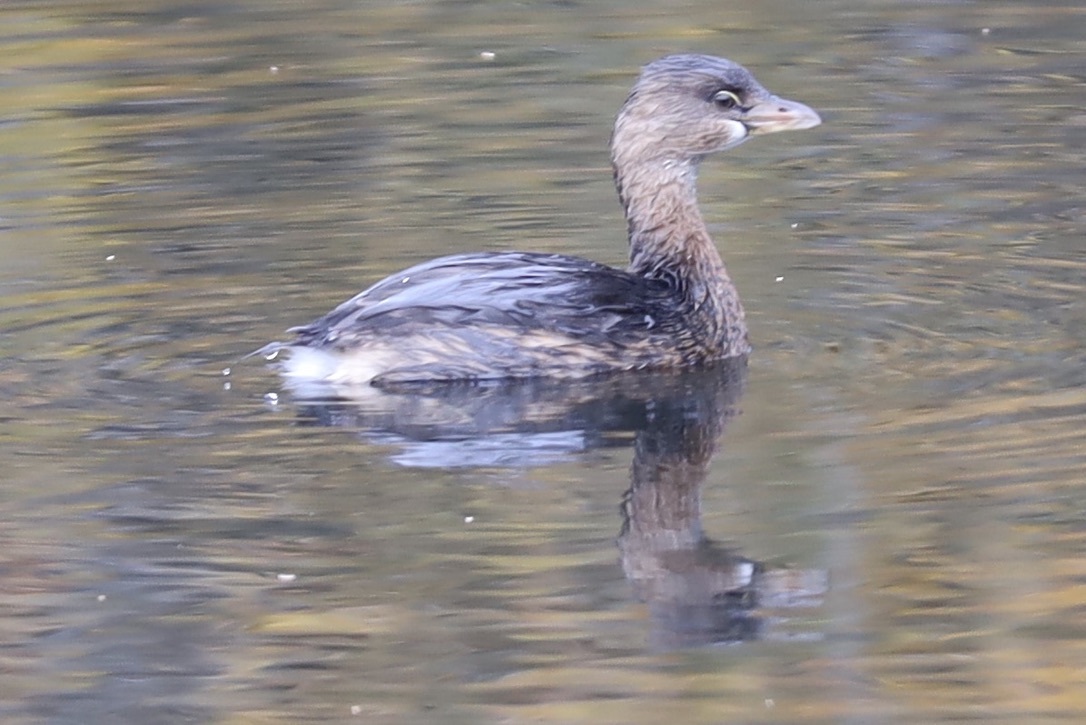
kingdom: Animalia
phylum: Chordata
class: Aves
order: Podicipediformes
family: Podicipedidae
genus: Podilymbus
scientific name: Podilymbus podiceps
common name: Pied-billed grebe
